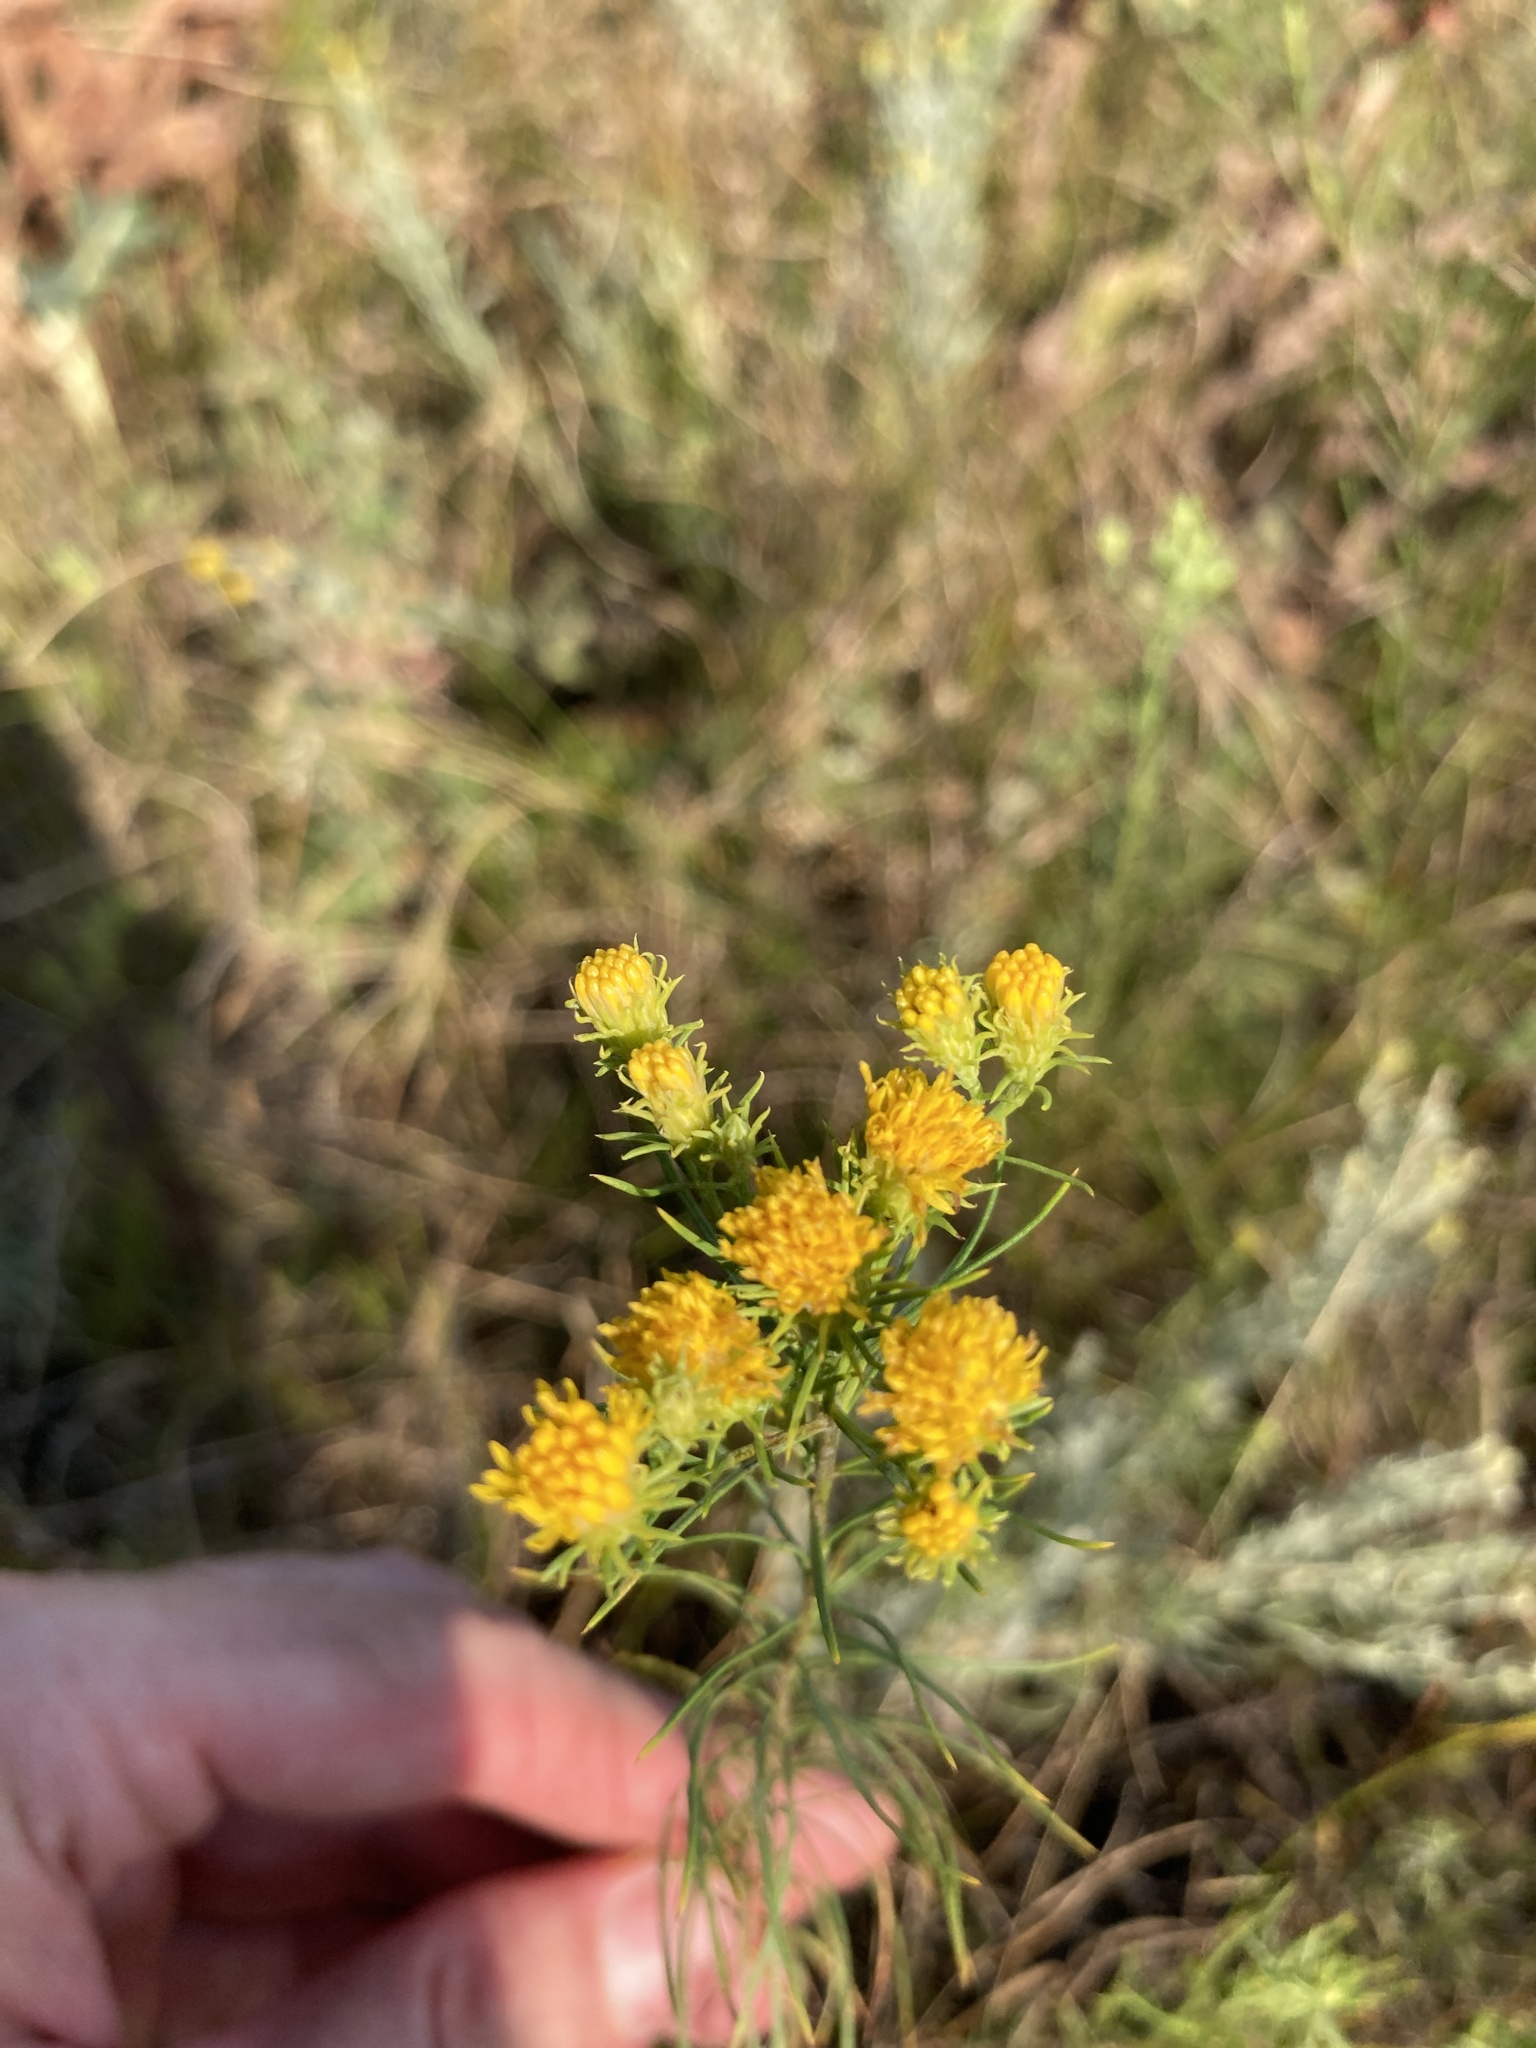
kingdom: Plantae
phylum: Tracheophyta
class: Magnoliopsida
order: Asterales
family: Asteraceae
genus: Galatella
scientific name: Galatella linosyris
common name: Goldilocks aster
